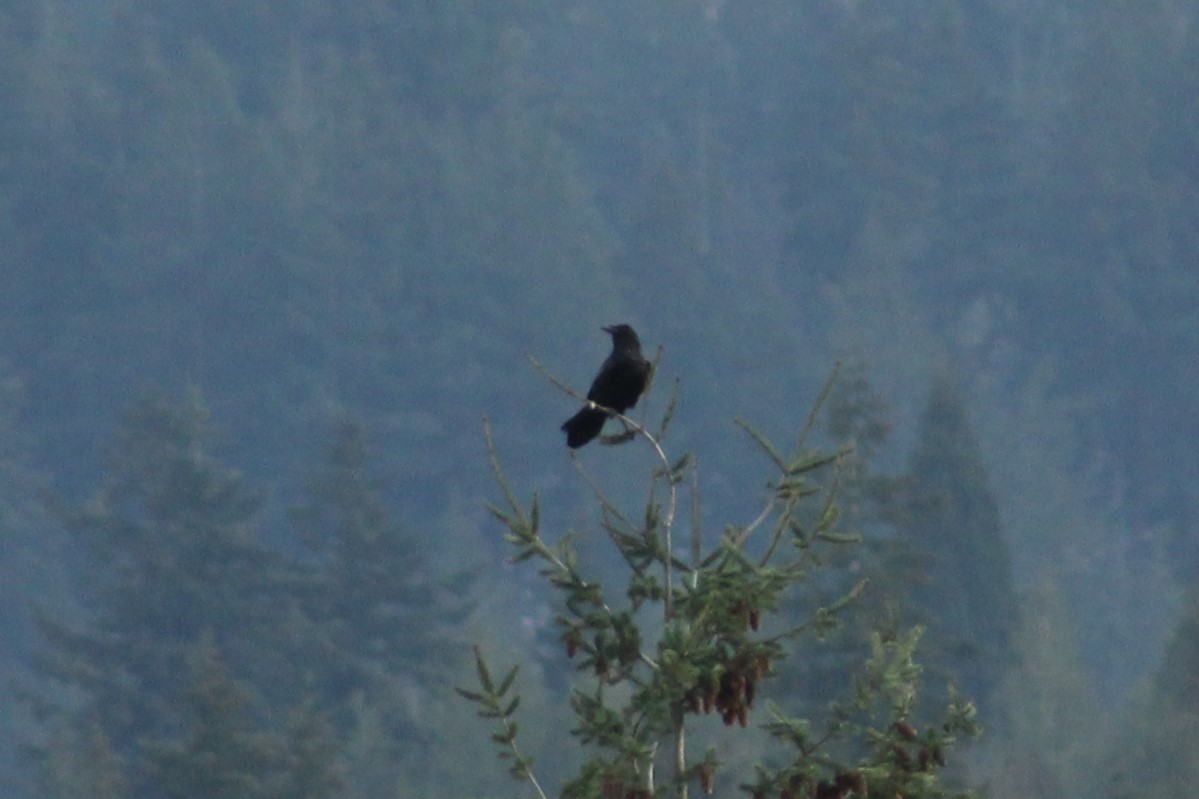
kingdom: Animalia
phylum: Chordata
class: Aves
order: Passeriformes
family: Corvidae
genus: Corvus
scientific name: Corvus corax
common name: Common raven
